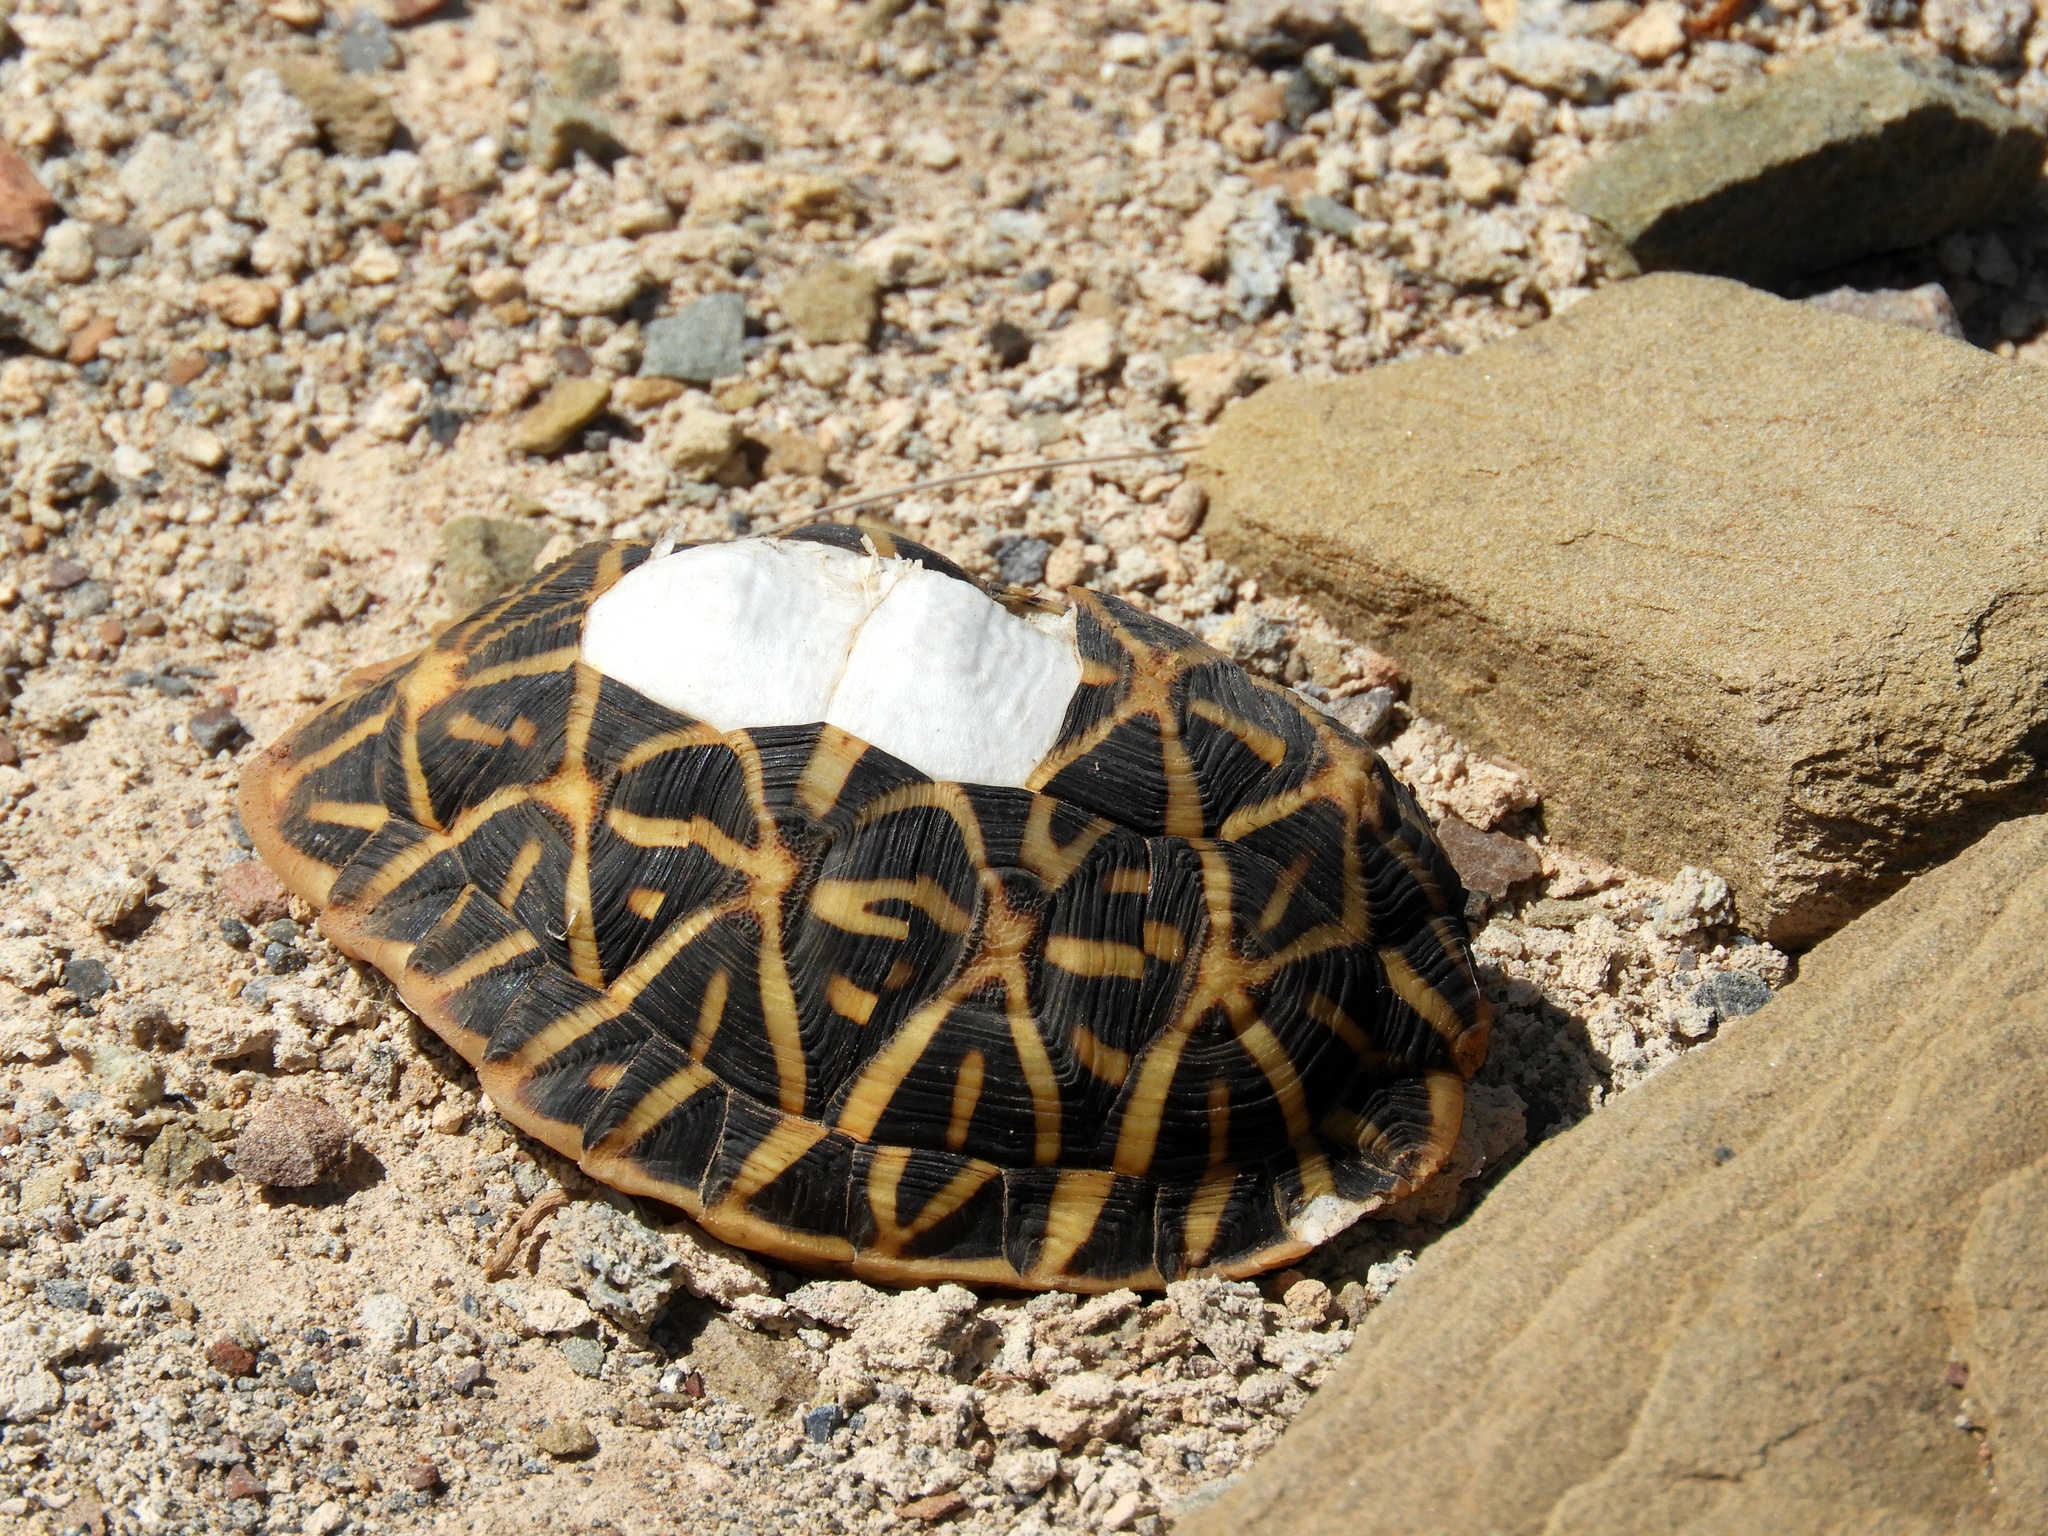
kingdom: Animalia
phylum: Chordata
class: Testudines
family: Testudinidae
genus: Psammobates
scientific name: Psammobates tentorius
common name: Tent tortoise
